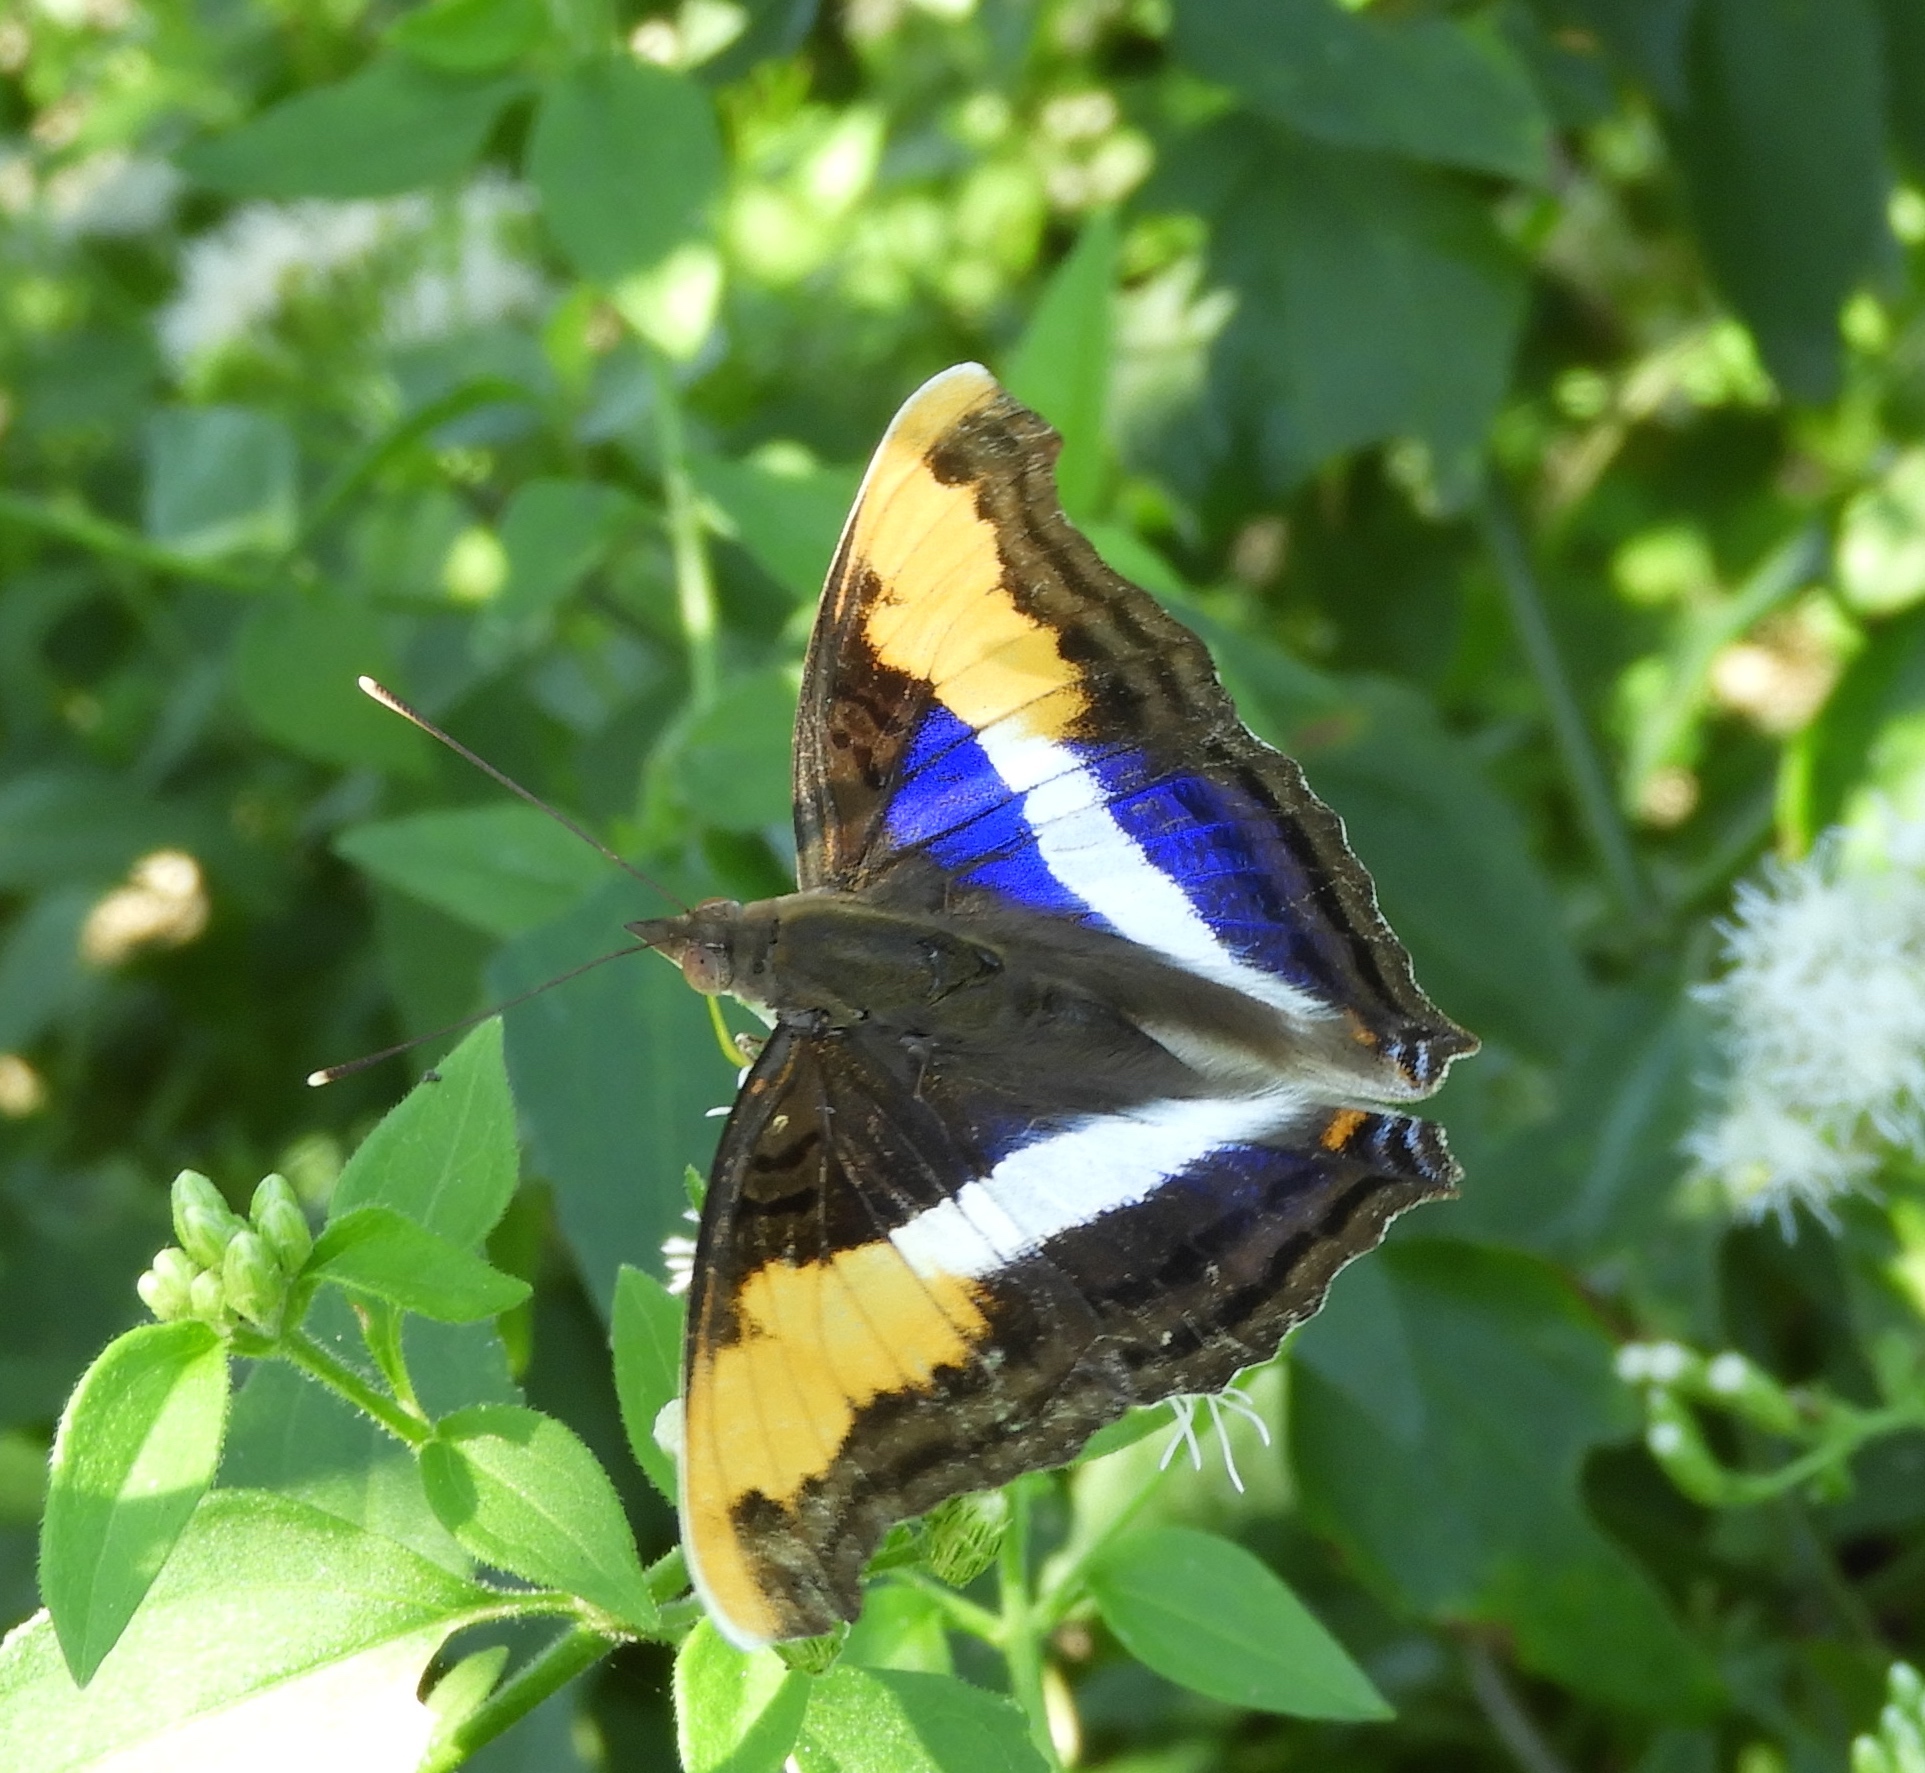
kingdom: Animalia
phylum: Arthropoda
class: Insecta
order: Lepidoptera
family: Nymphalidae
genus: Doxocopa
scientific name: Doxocopa laure
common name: Silver emperor
